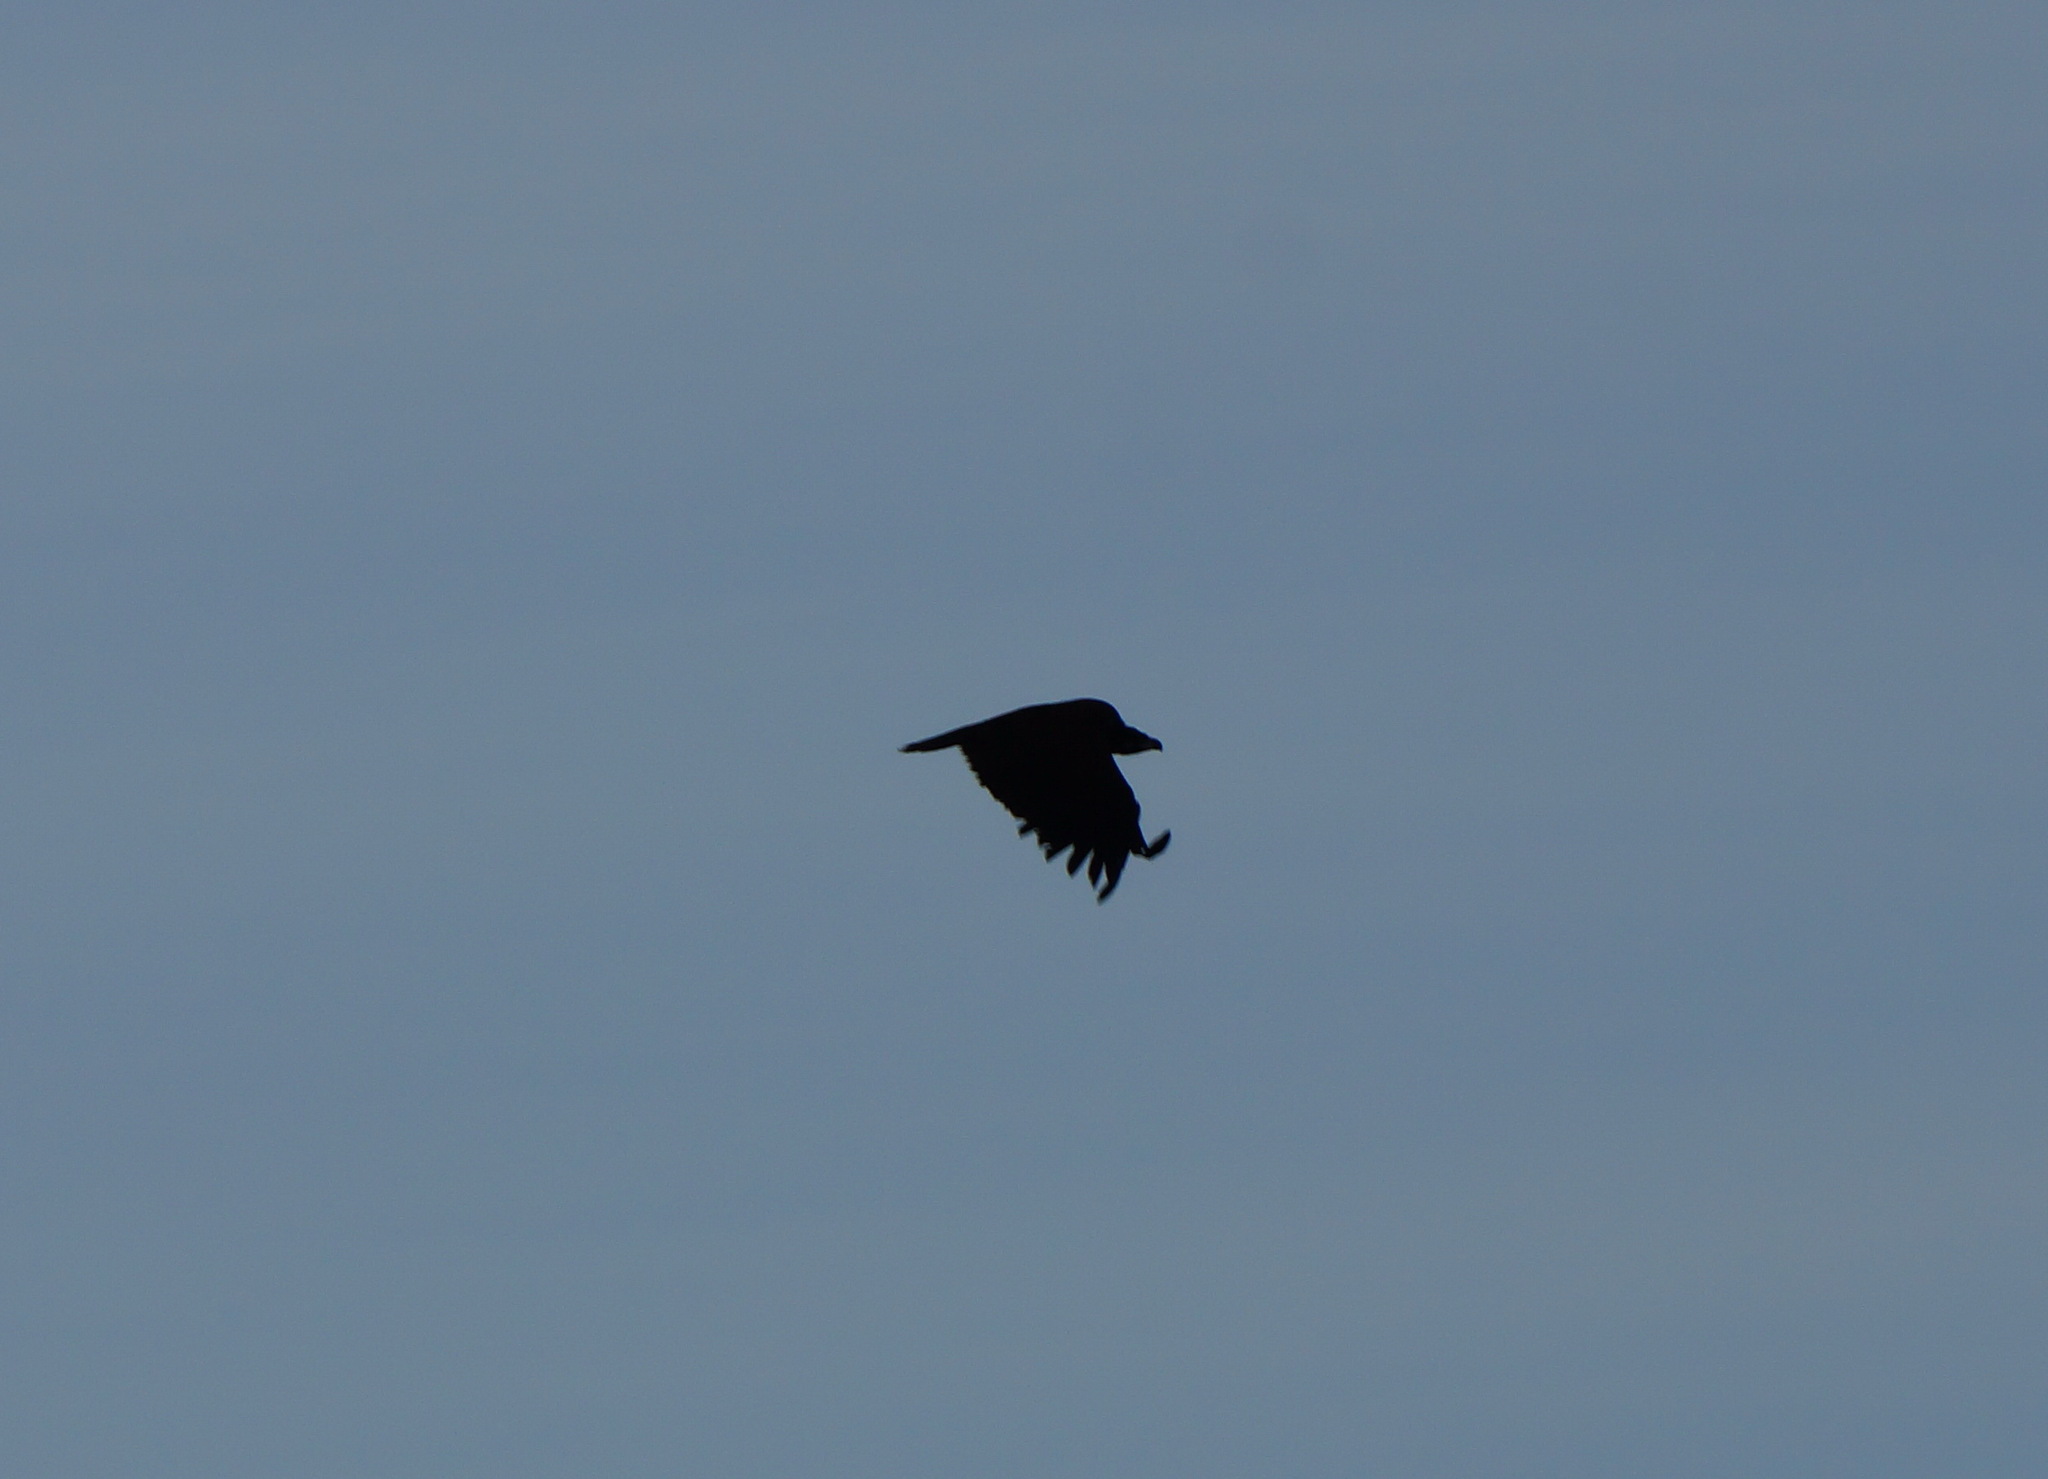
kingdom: Animalia
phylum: Chordata
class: Aves
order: Accipitriformes
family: Accipitridae
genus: Aegypius
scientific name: Aegypius monachus
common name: Cinereous vulture
